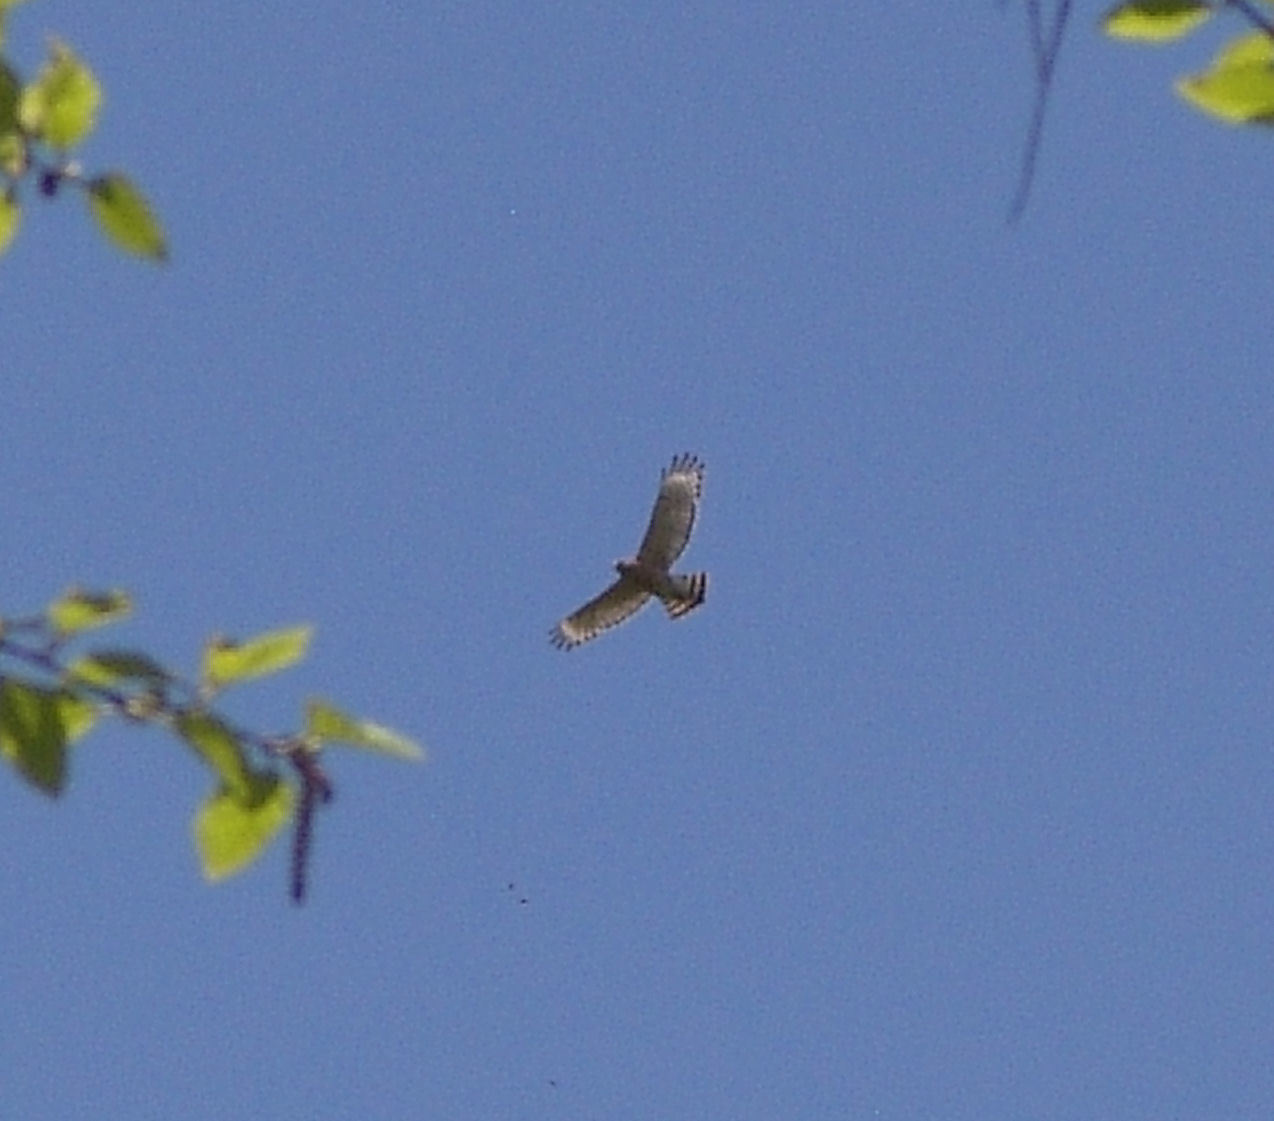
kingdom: Animalia
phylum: Chordata
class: Aves
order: Accipitriformes
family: Accipitridae
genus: Buteo
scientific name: Buteo lineatus
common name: Red-shouldered hawk
